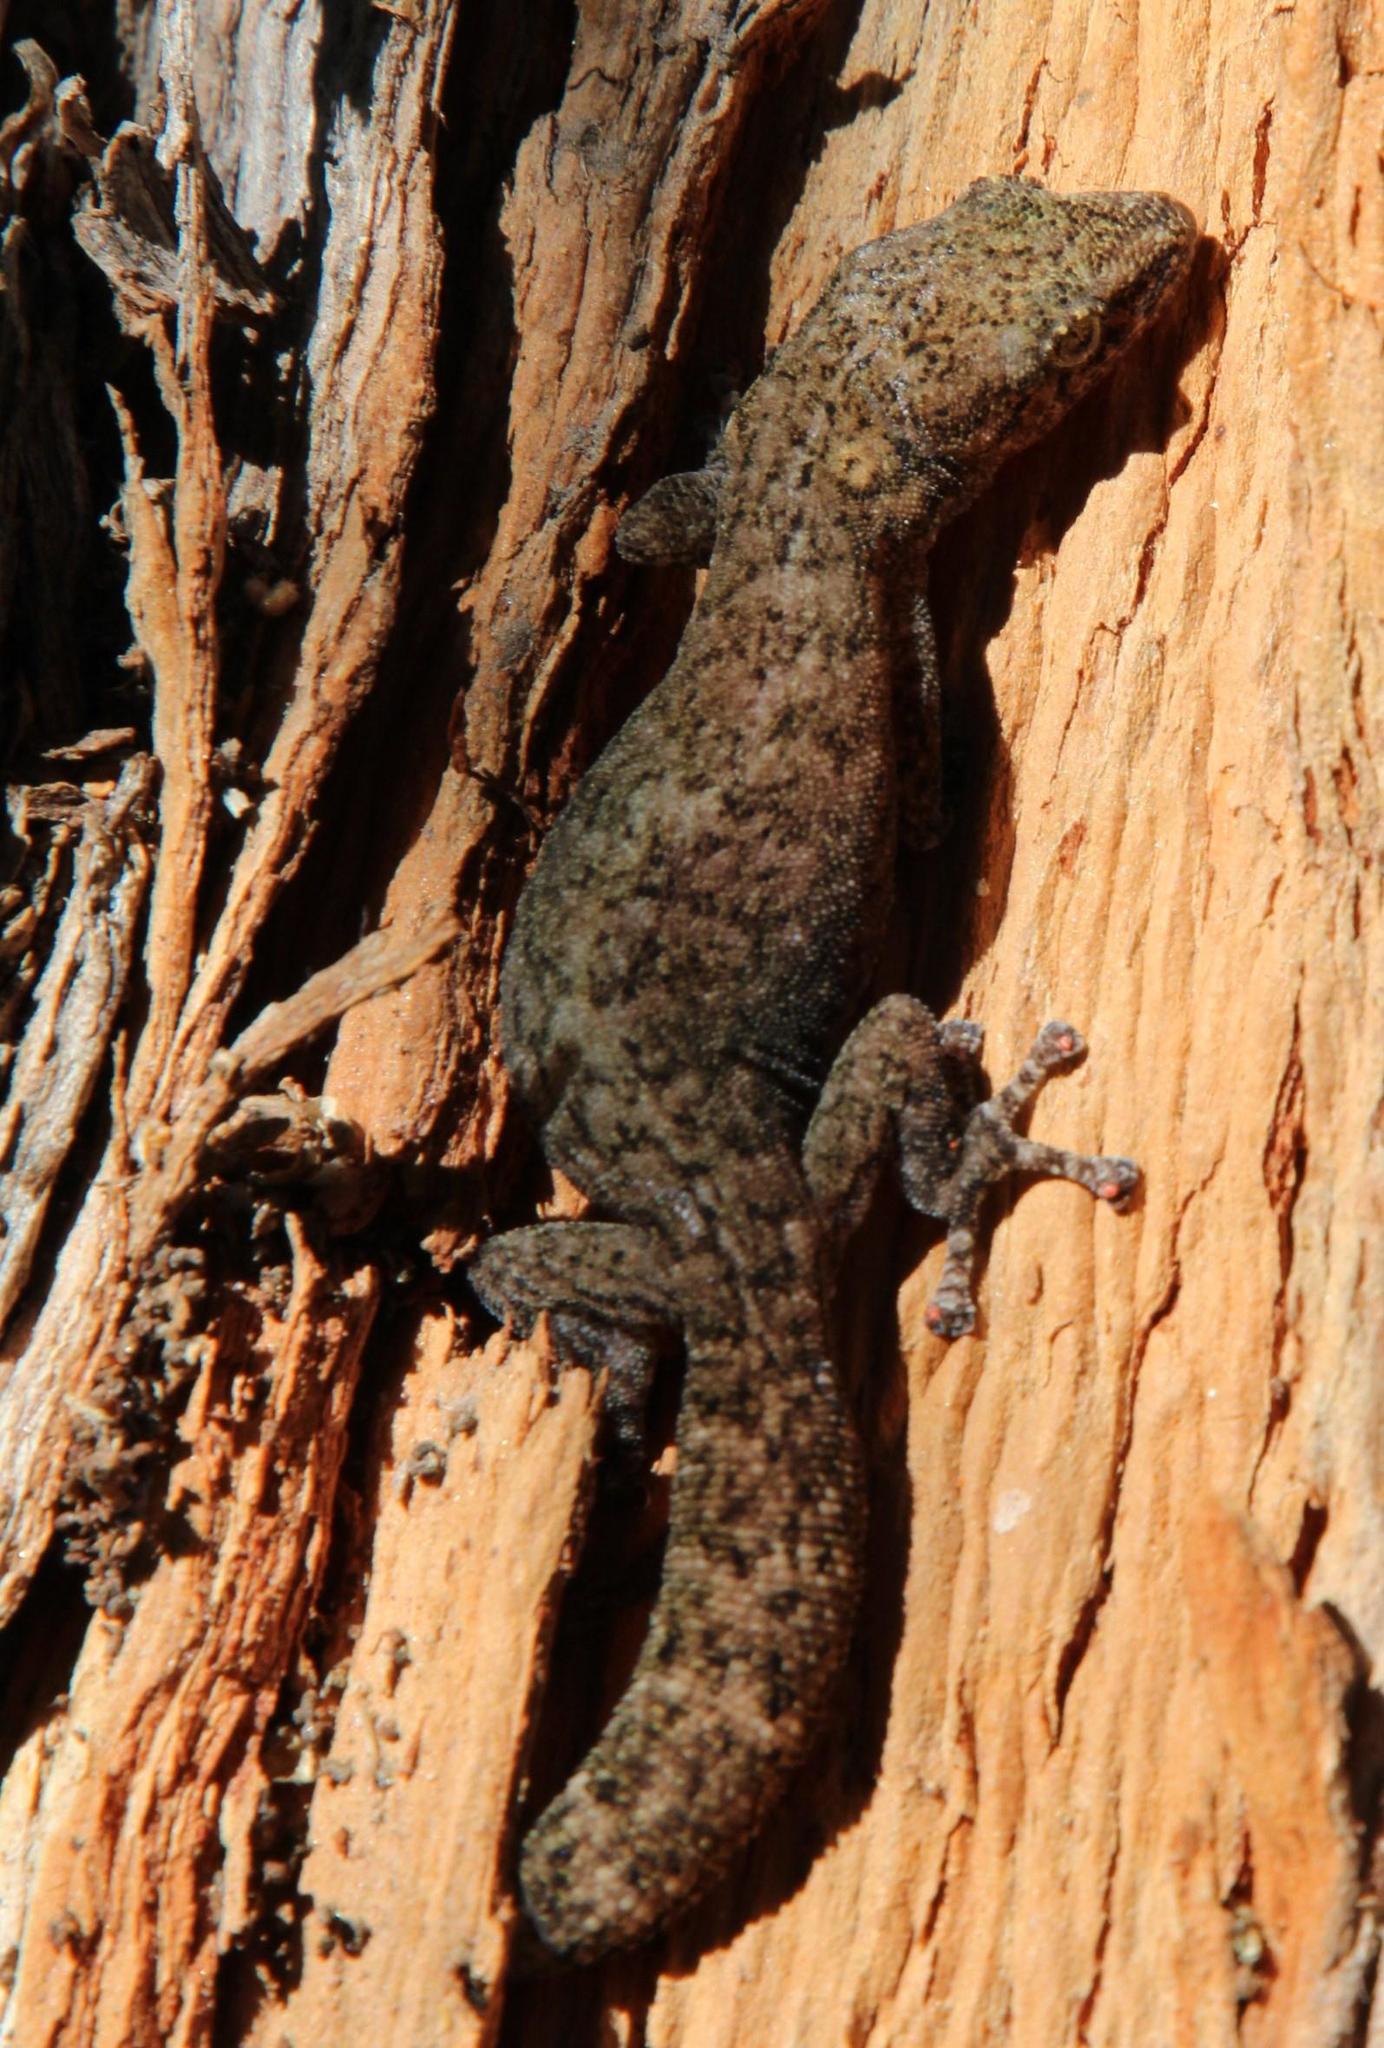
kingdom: Animalia
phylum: Chordata
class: Squamata
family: Gekkonidae
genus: Afrogecko
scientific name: Afrogecko porphyreus
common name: Marbled leaf-toed gecko
